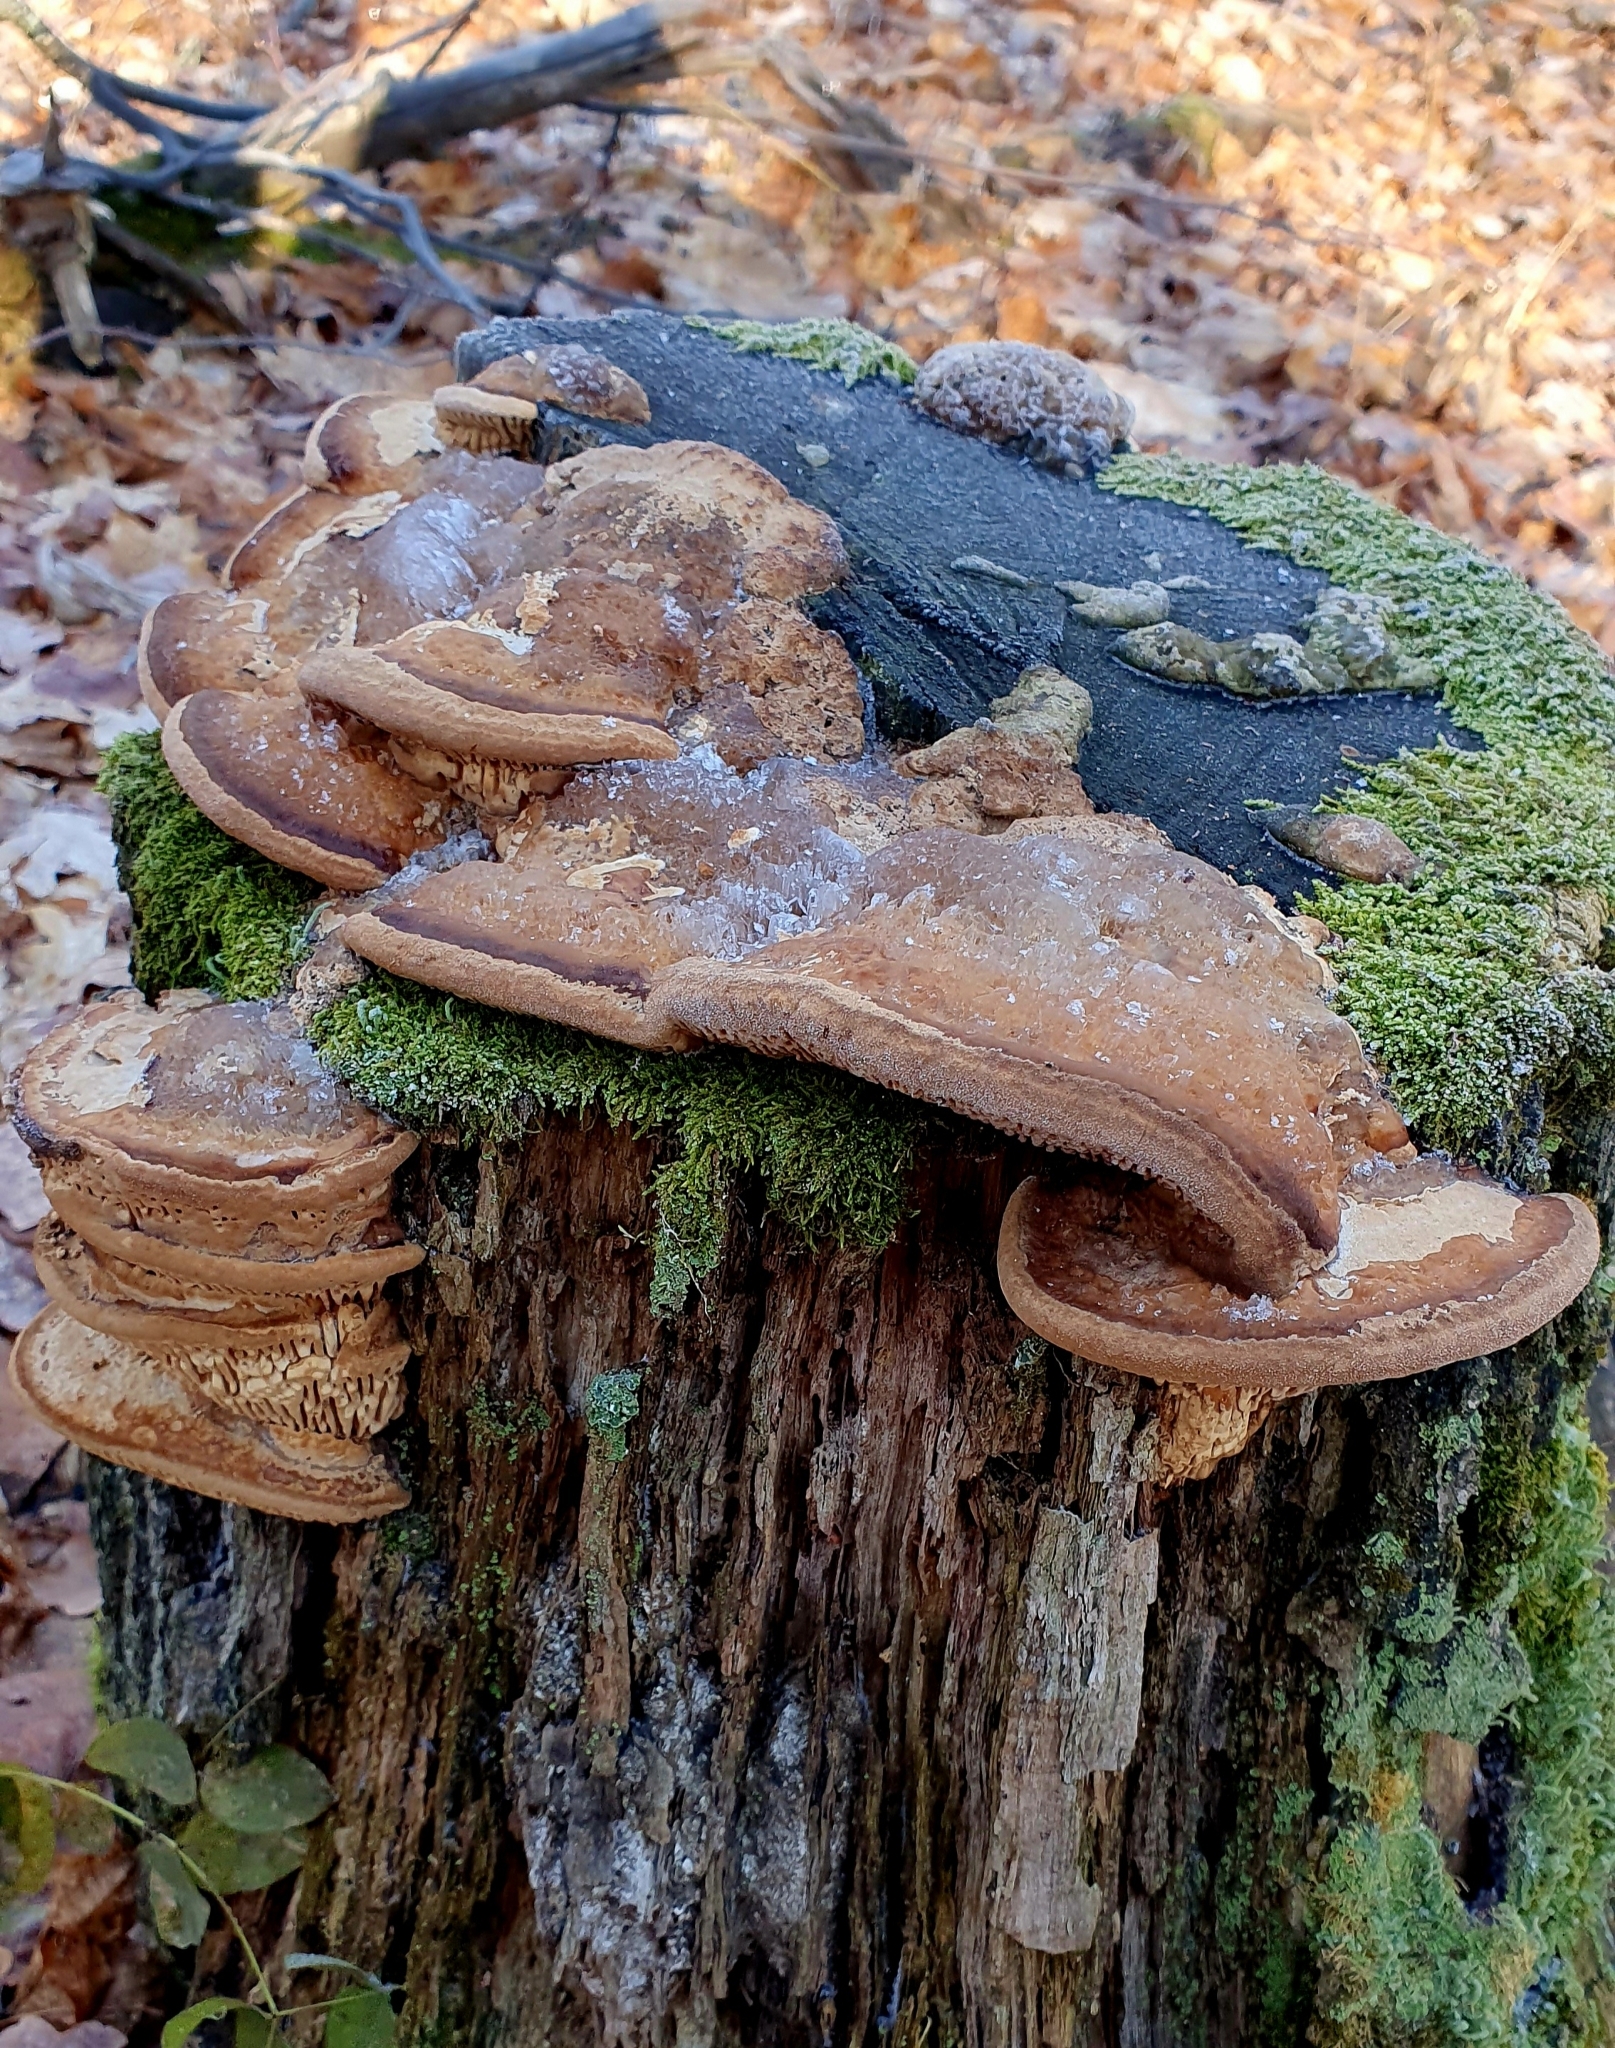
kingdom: Fungi
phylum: Basidiomycota
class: Agaricomycetes
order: Polyporales
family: Fomitopsidaceae
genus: Fomitopsis
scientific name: Fomitopsis
